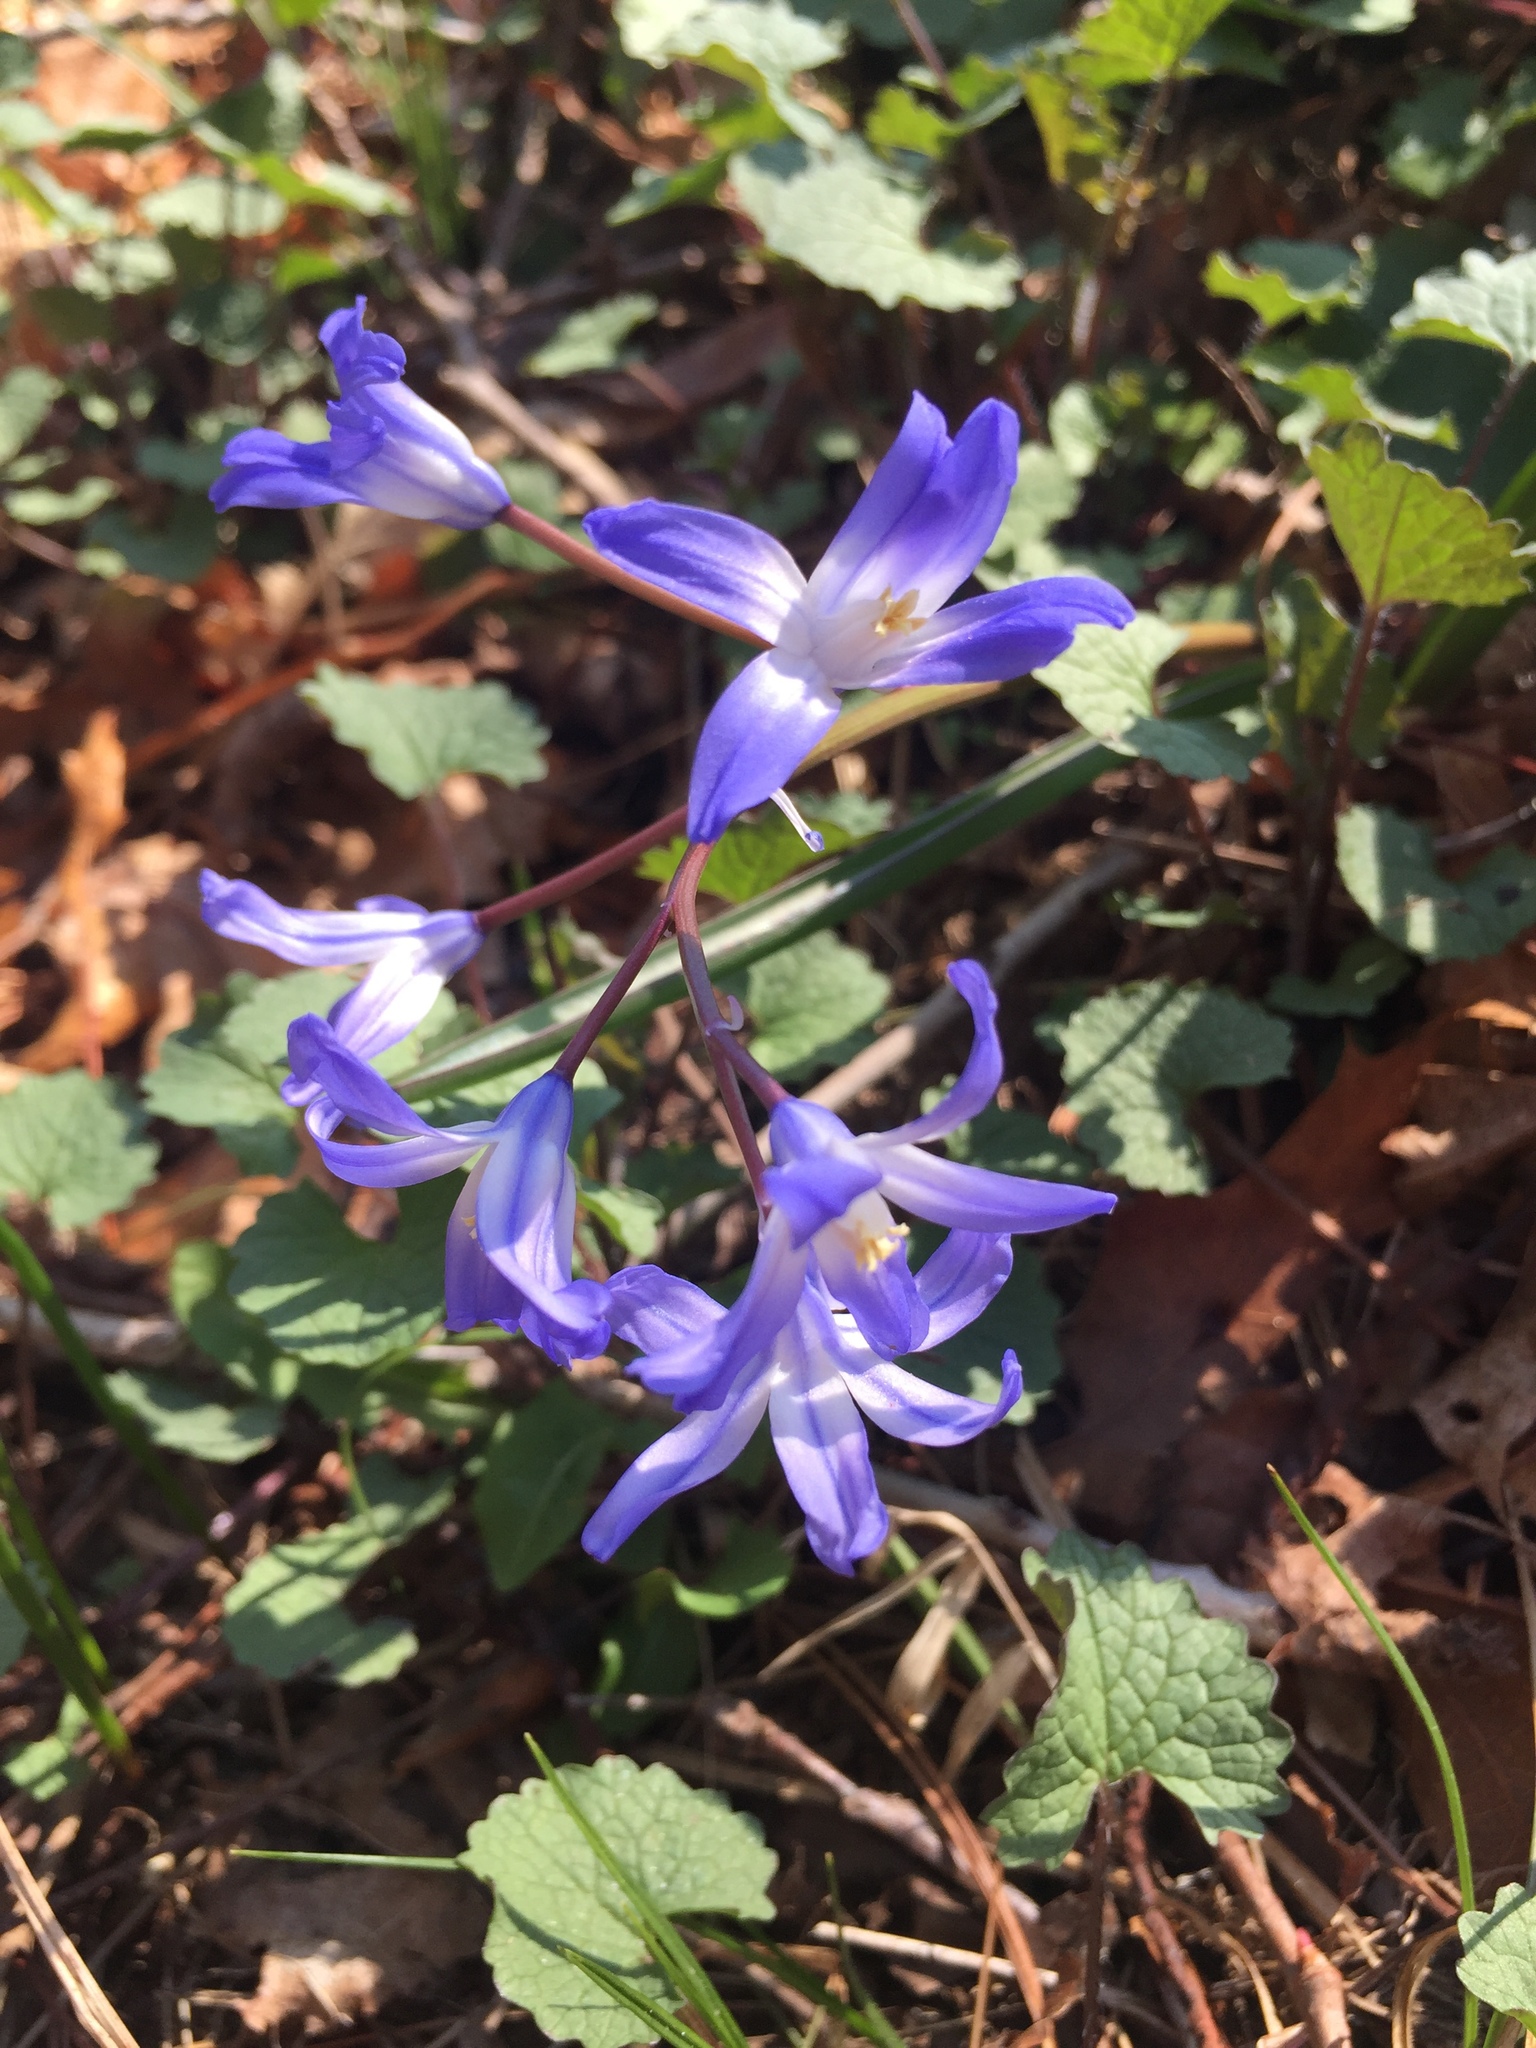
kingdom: Plantae
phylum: Tracheophyta
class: Liliopsida
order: Asparagales
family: Asparagaceae
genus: Scilla
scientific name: Scilla forbesii
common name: Glory-of-the-snow
